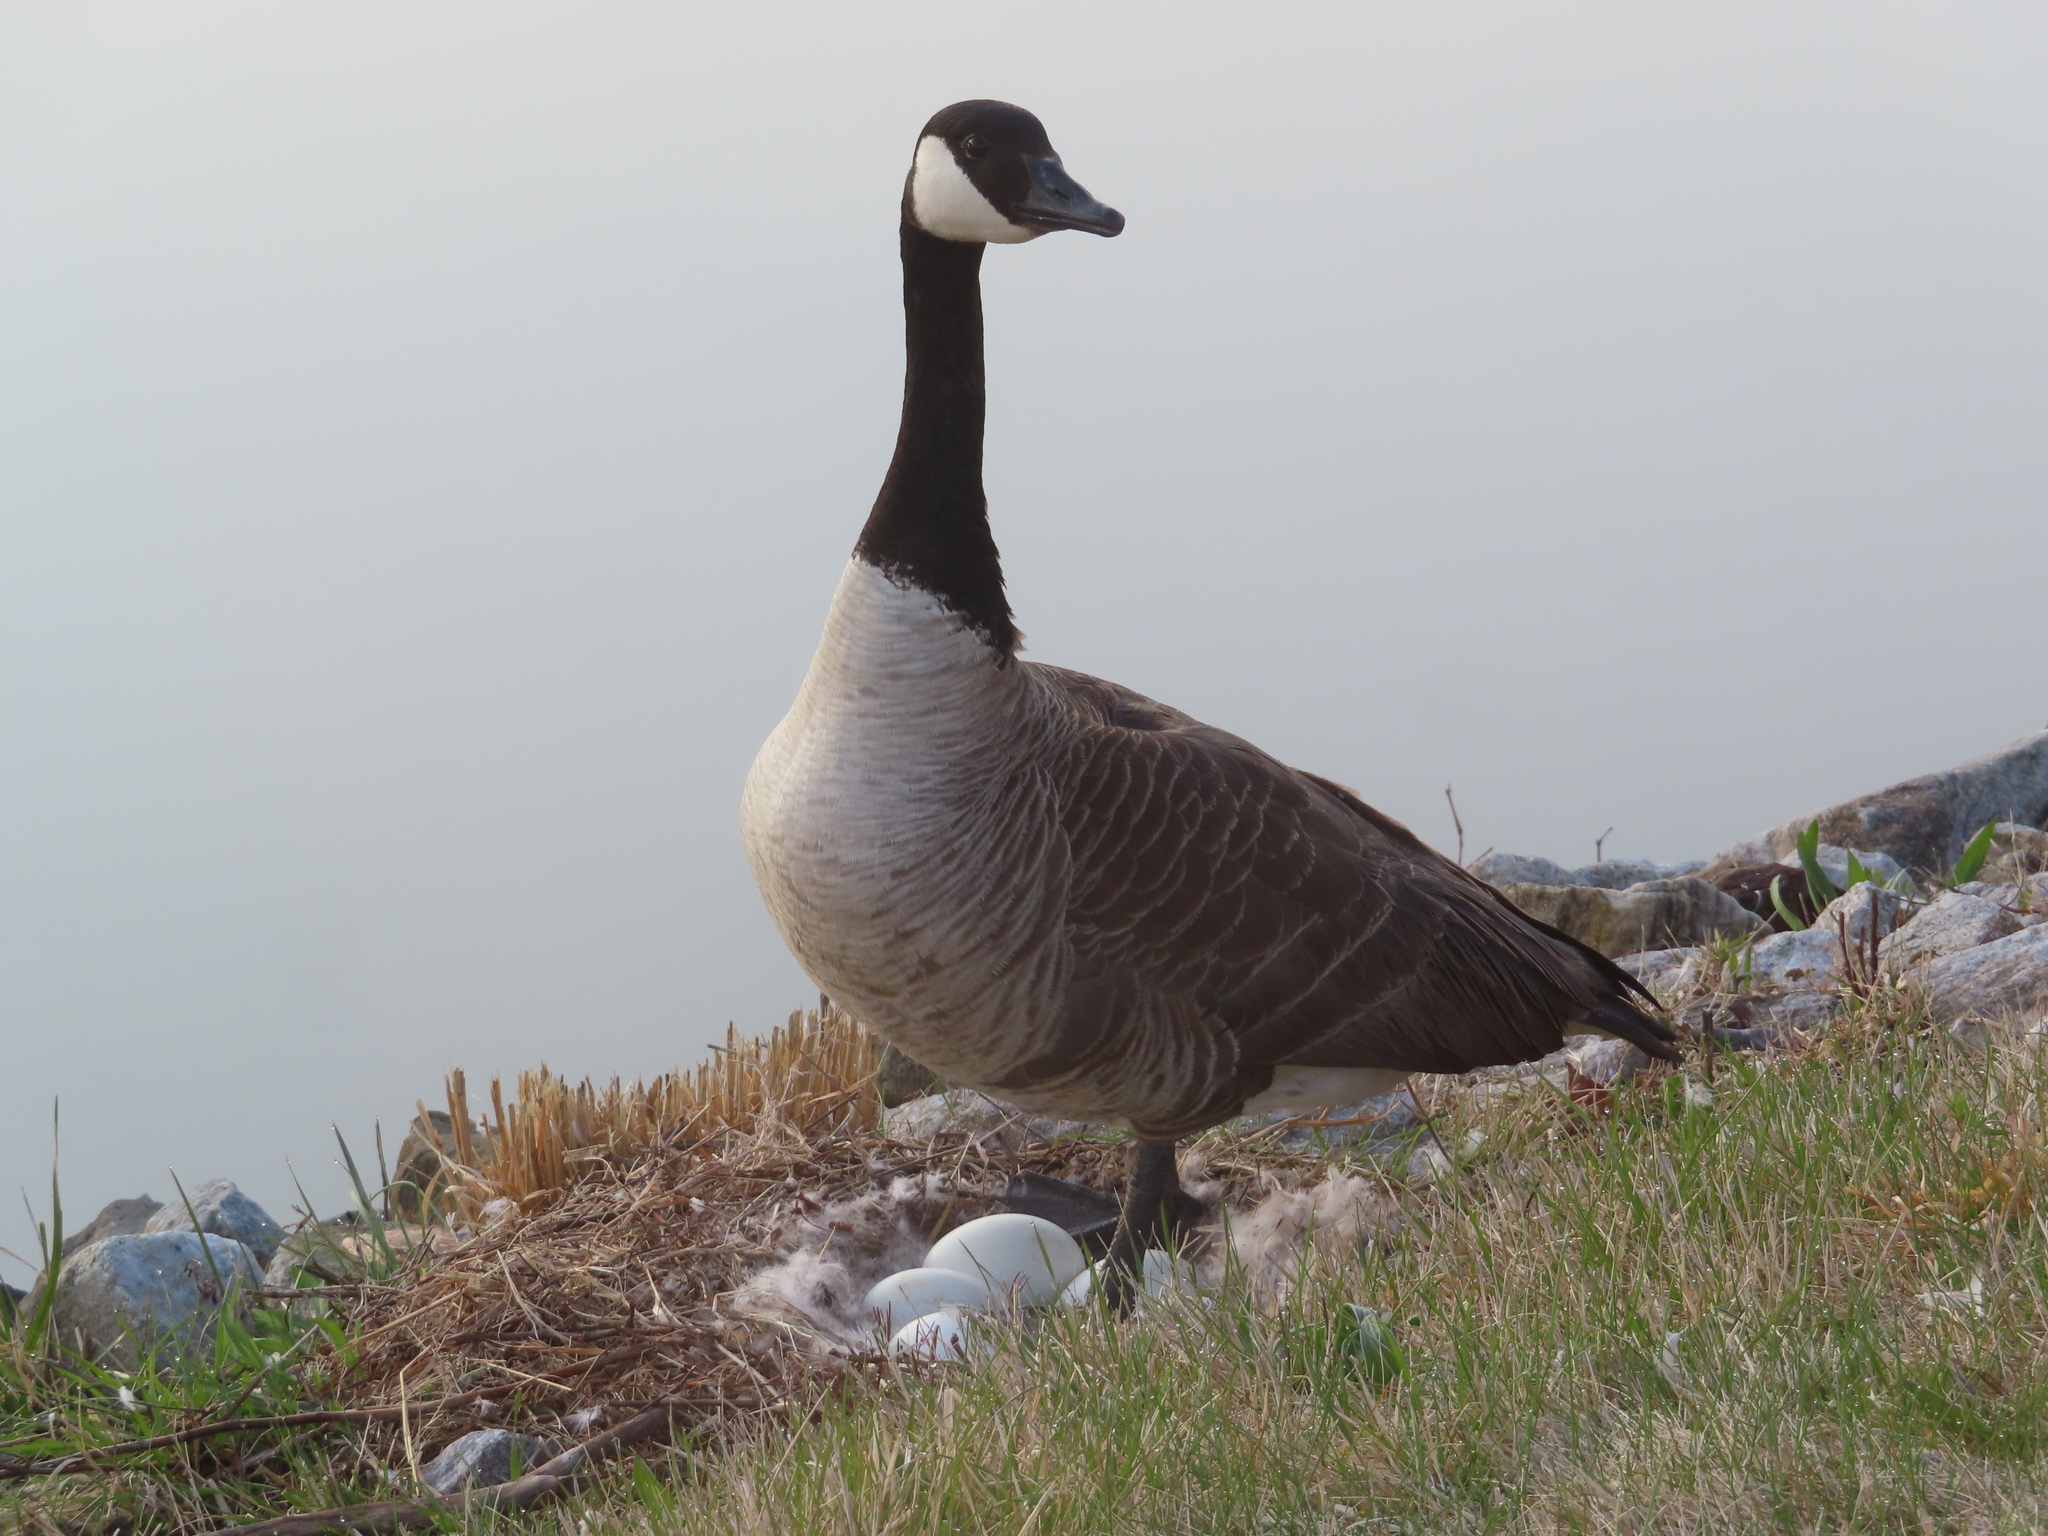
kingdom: Animalia
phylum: Chordata
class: Aves
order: Anseriformes
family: Anatidae
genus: Branta
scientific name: Branta canadensis
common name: Canada goose
